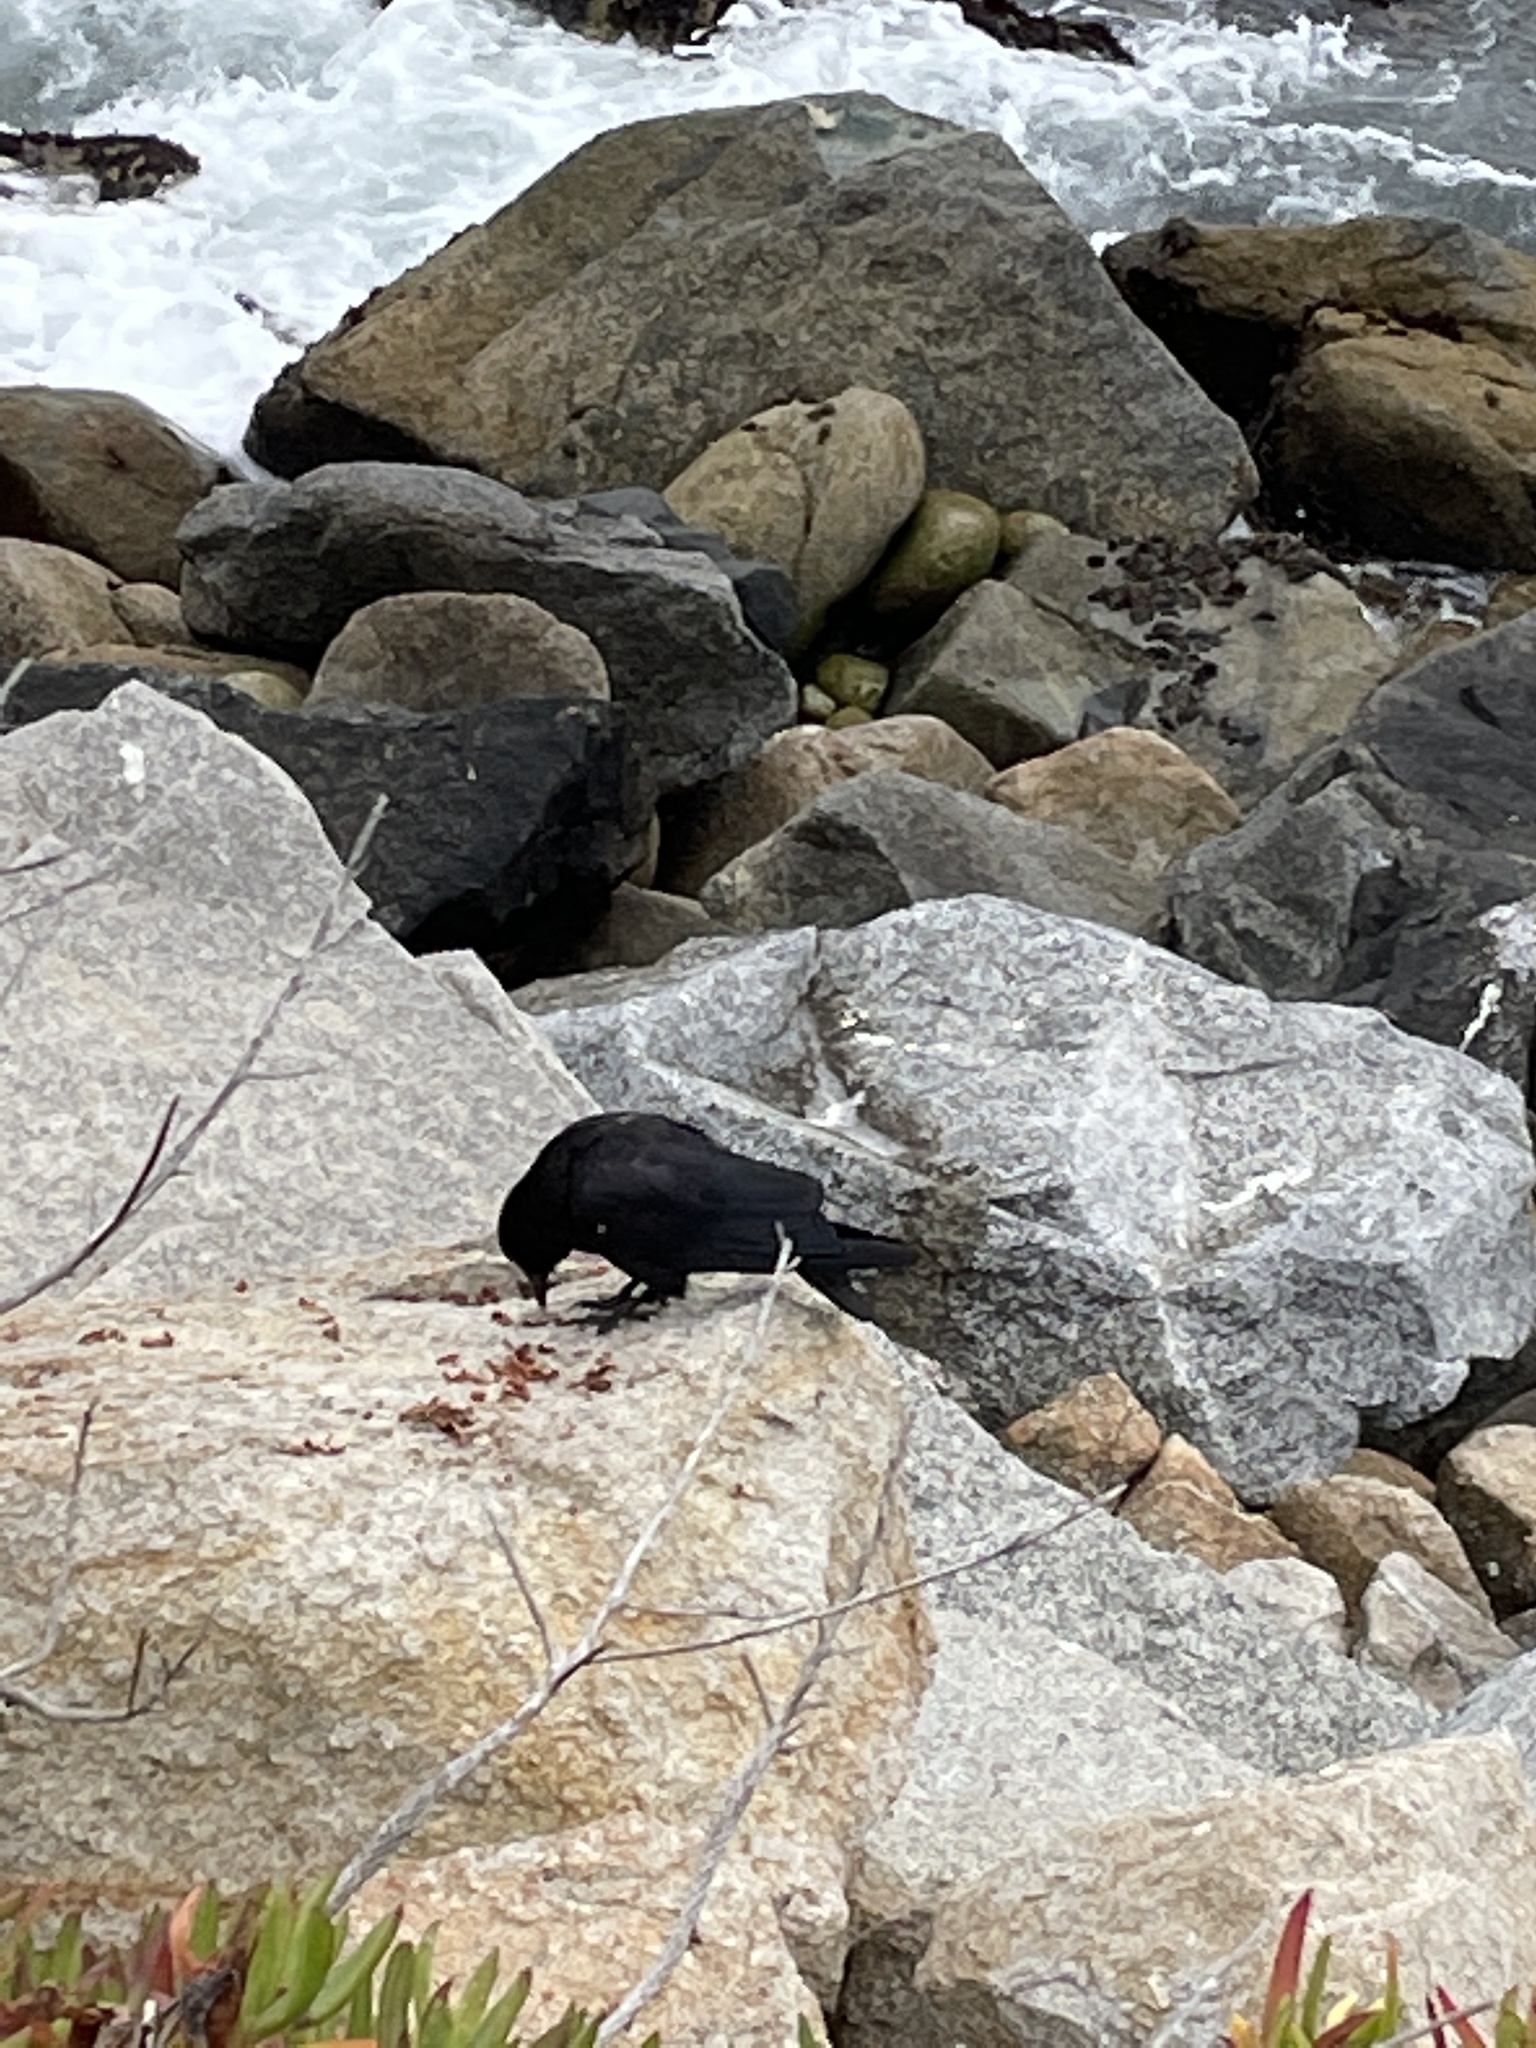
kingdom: Animalia
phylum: Chordata
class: Aves
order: Passeriformes
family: Corvidae
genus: Corvus
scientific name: Corvus brachyrhynchos
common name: American crow
